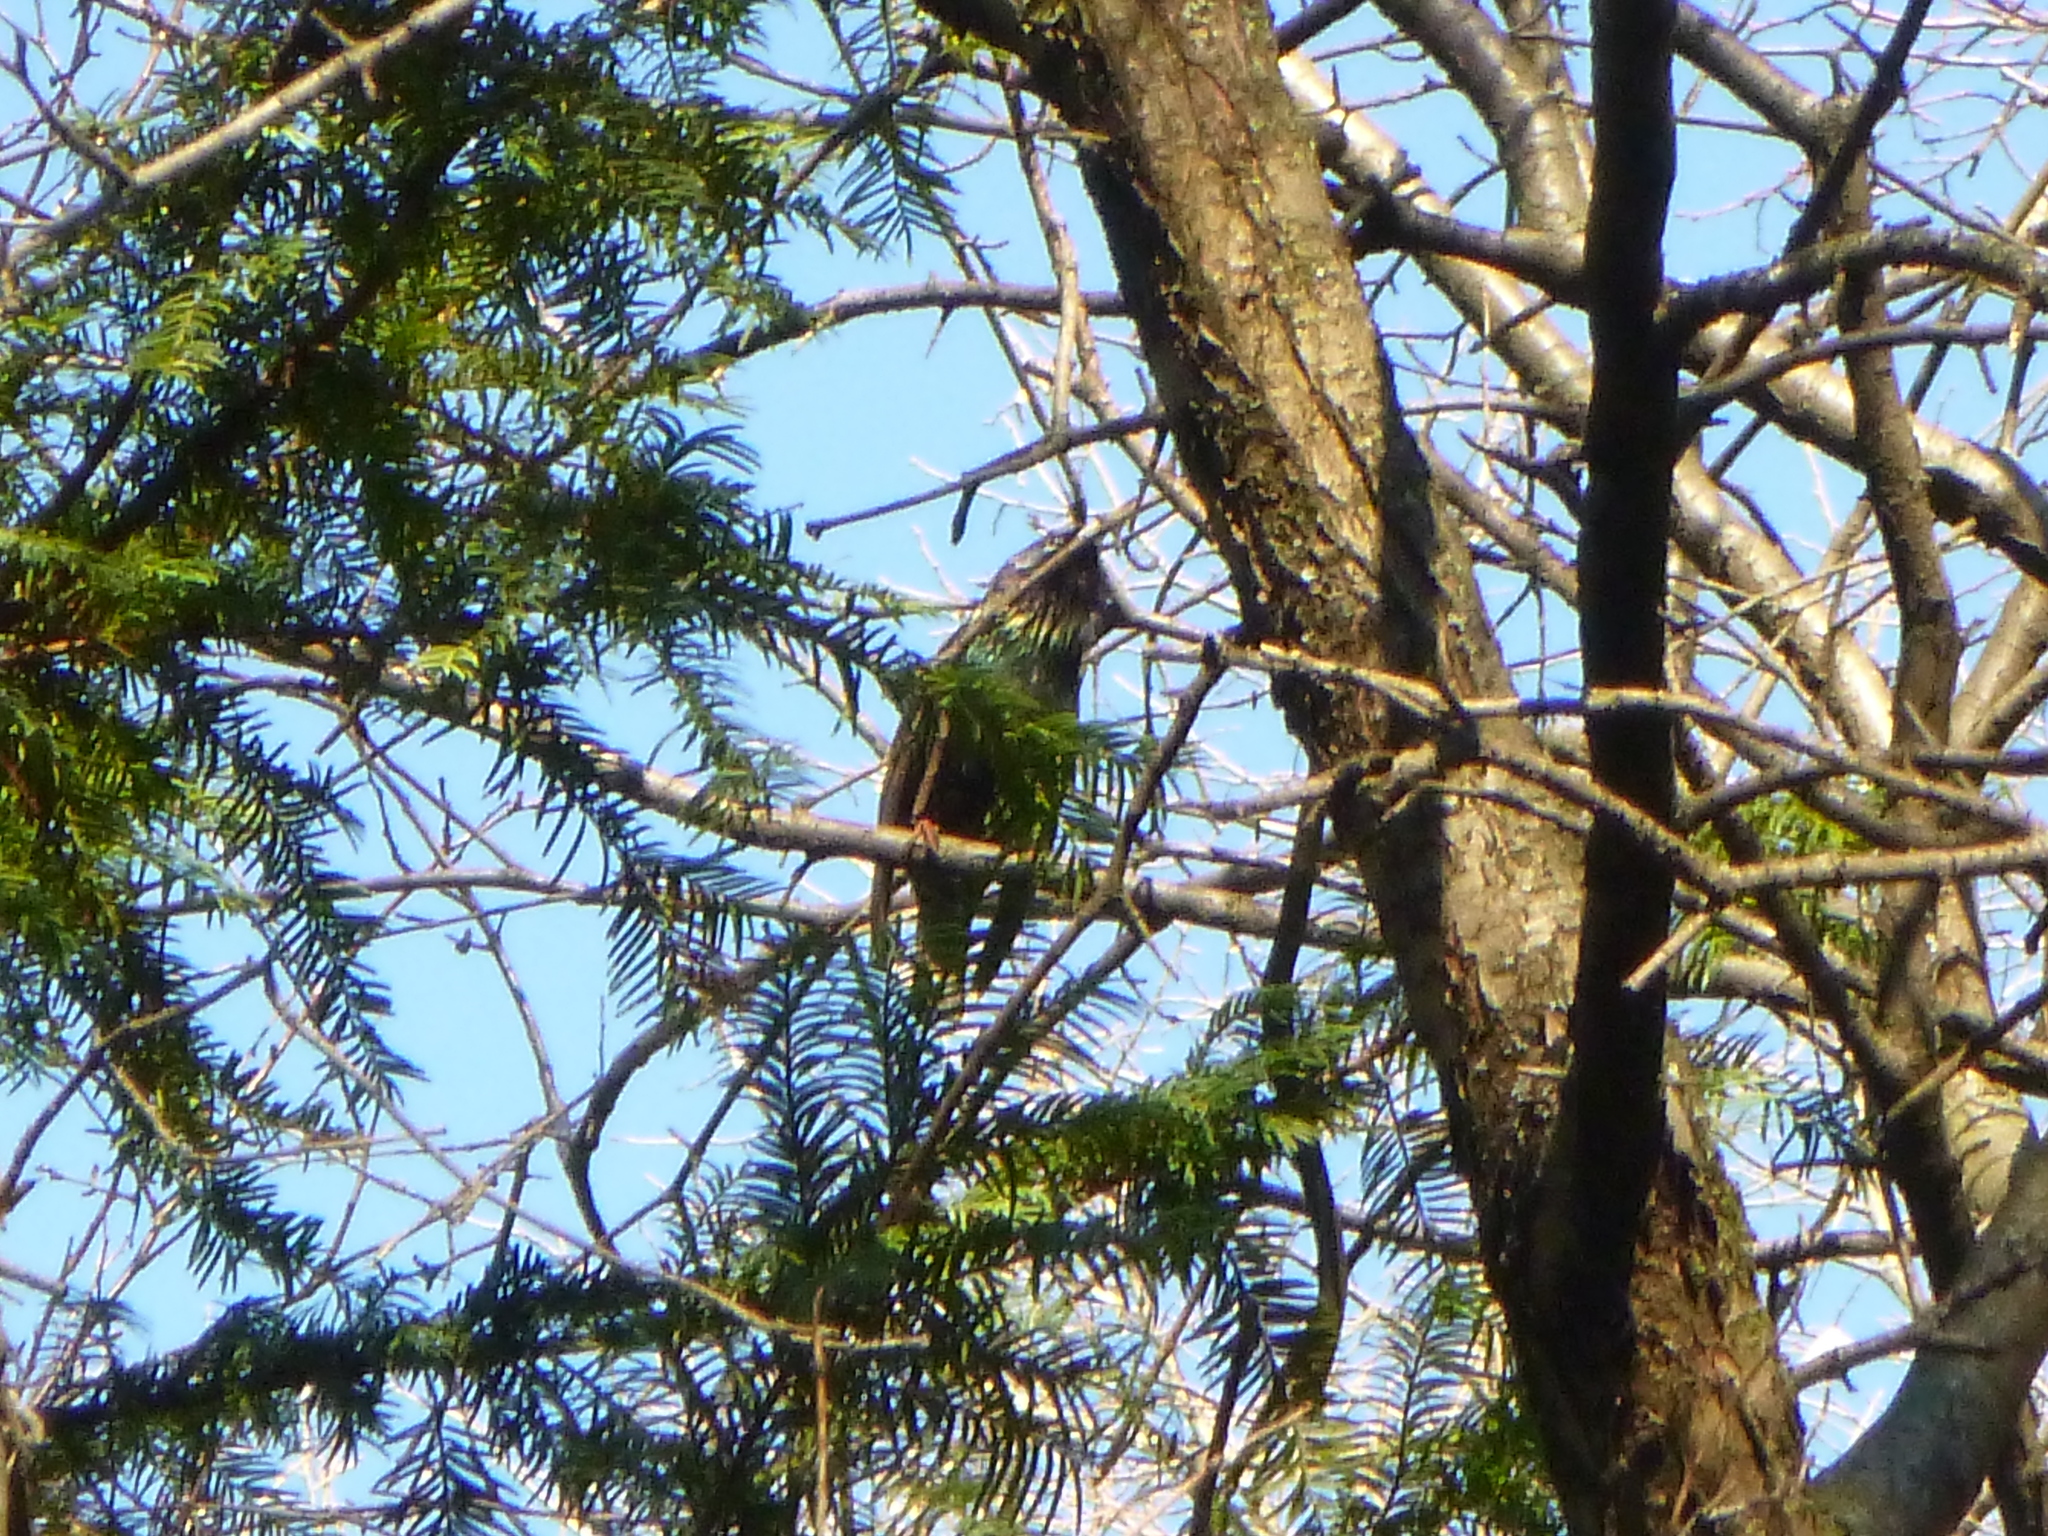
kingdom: Animalia
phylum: Chordata
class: Aves
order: Passeriformes
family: Sturnidae
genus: Sturnus
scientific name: Sturnus vulgaris
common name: Common starling
